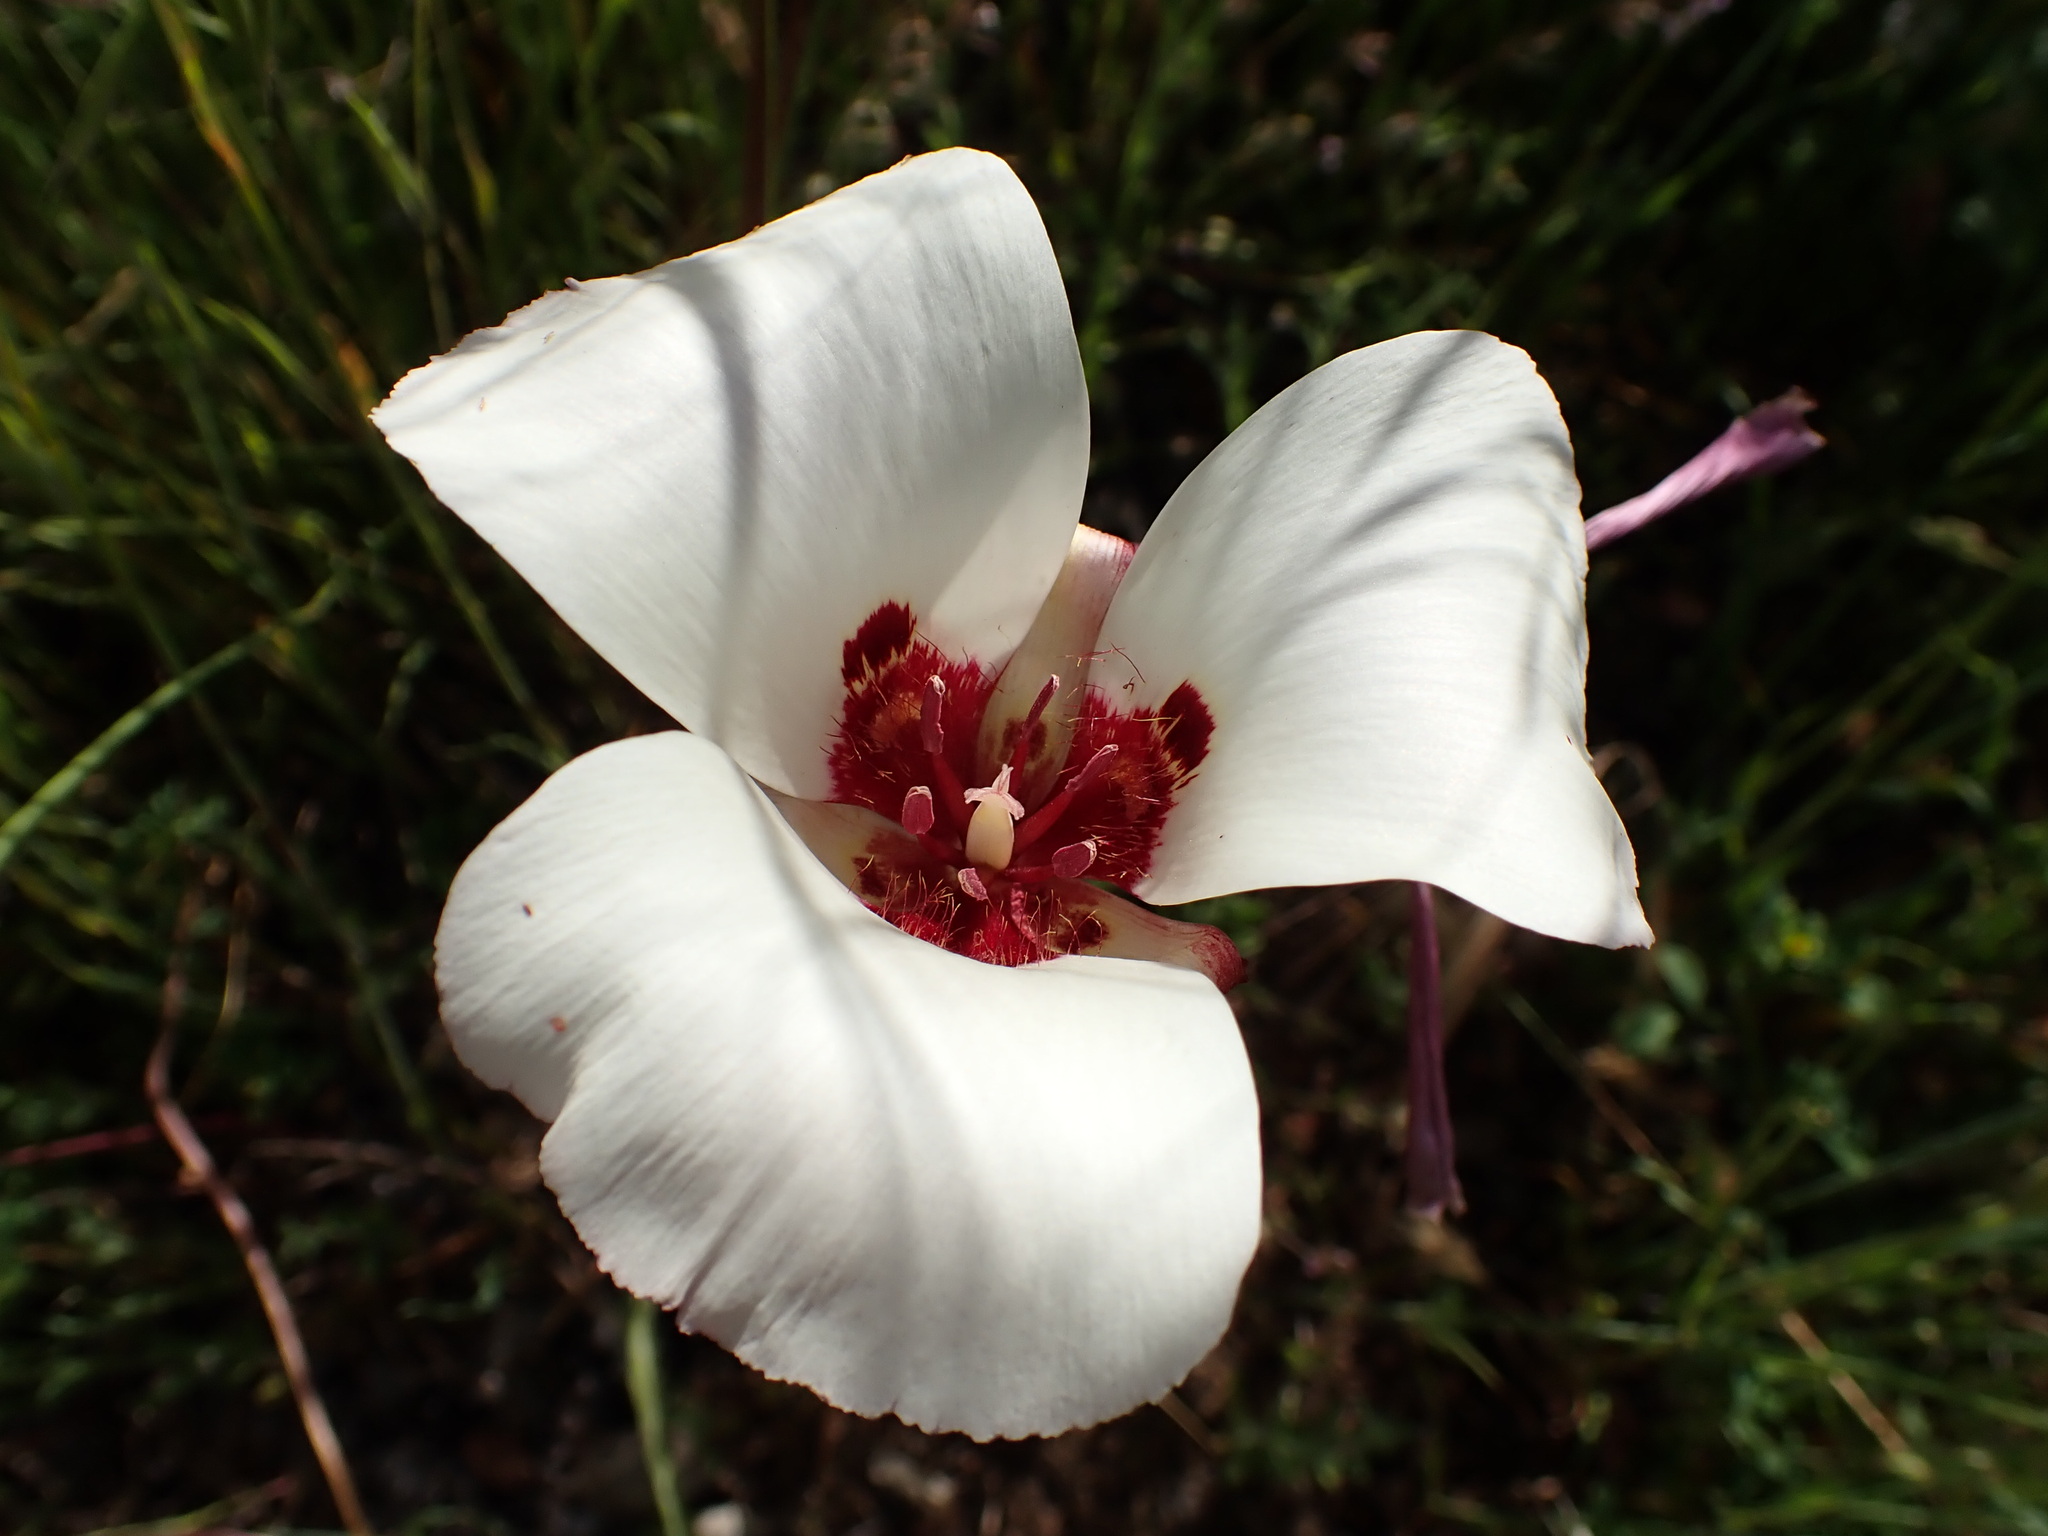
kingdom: Plantae
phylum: Tracheophyta
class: Liliopsida
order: Liliales
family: Liliaceae
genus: Calochortus
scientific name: Calochortus simulans
